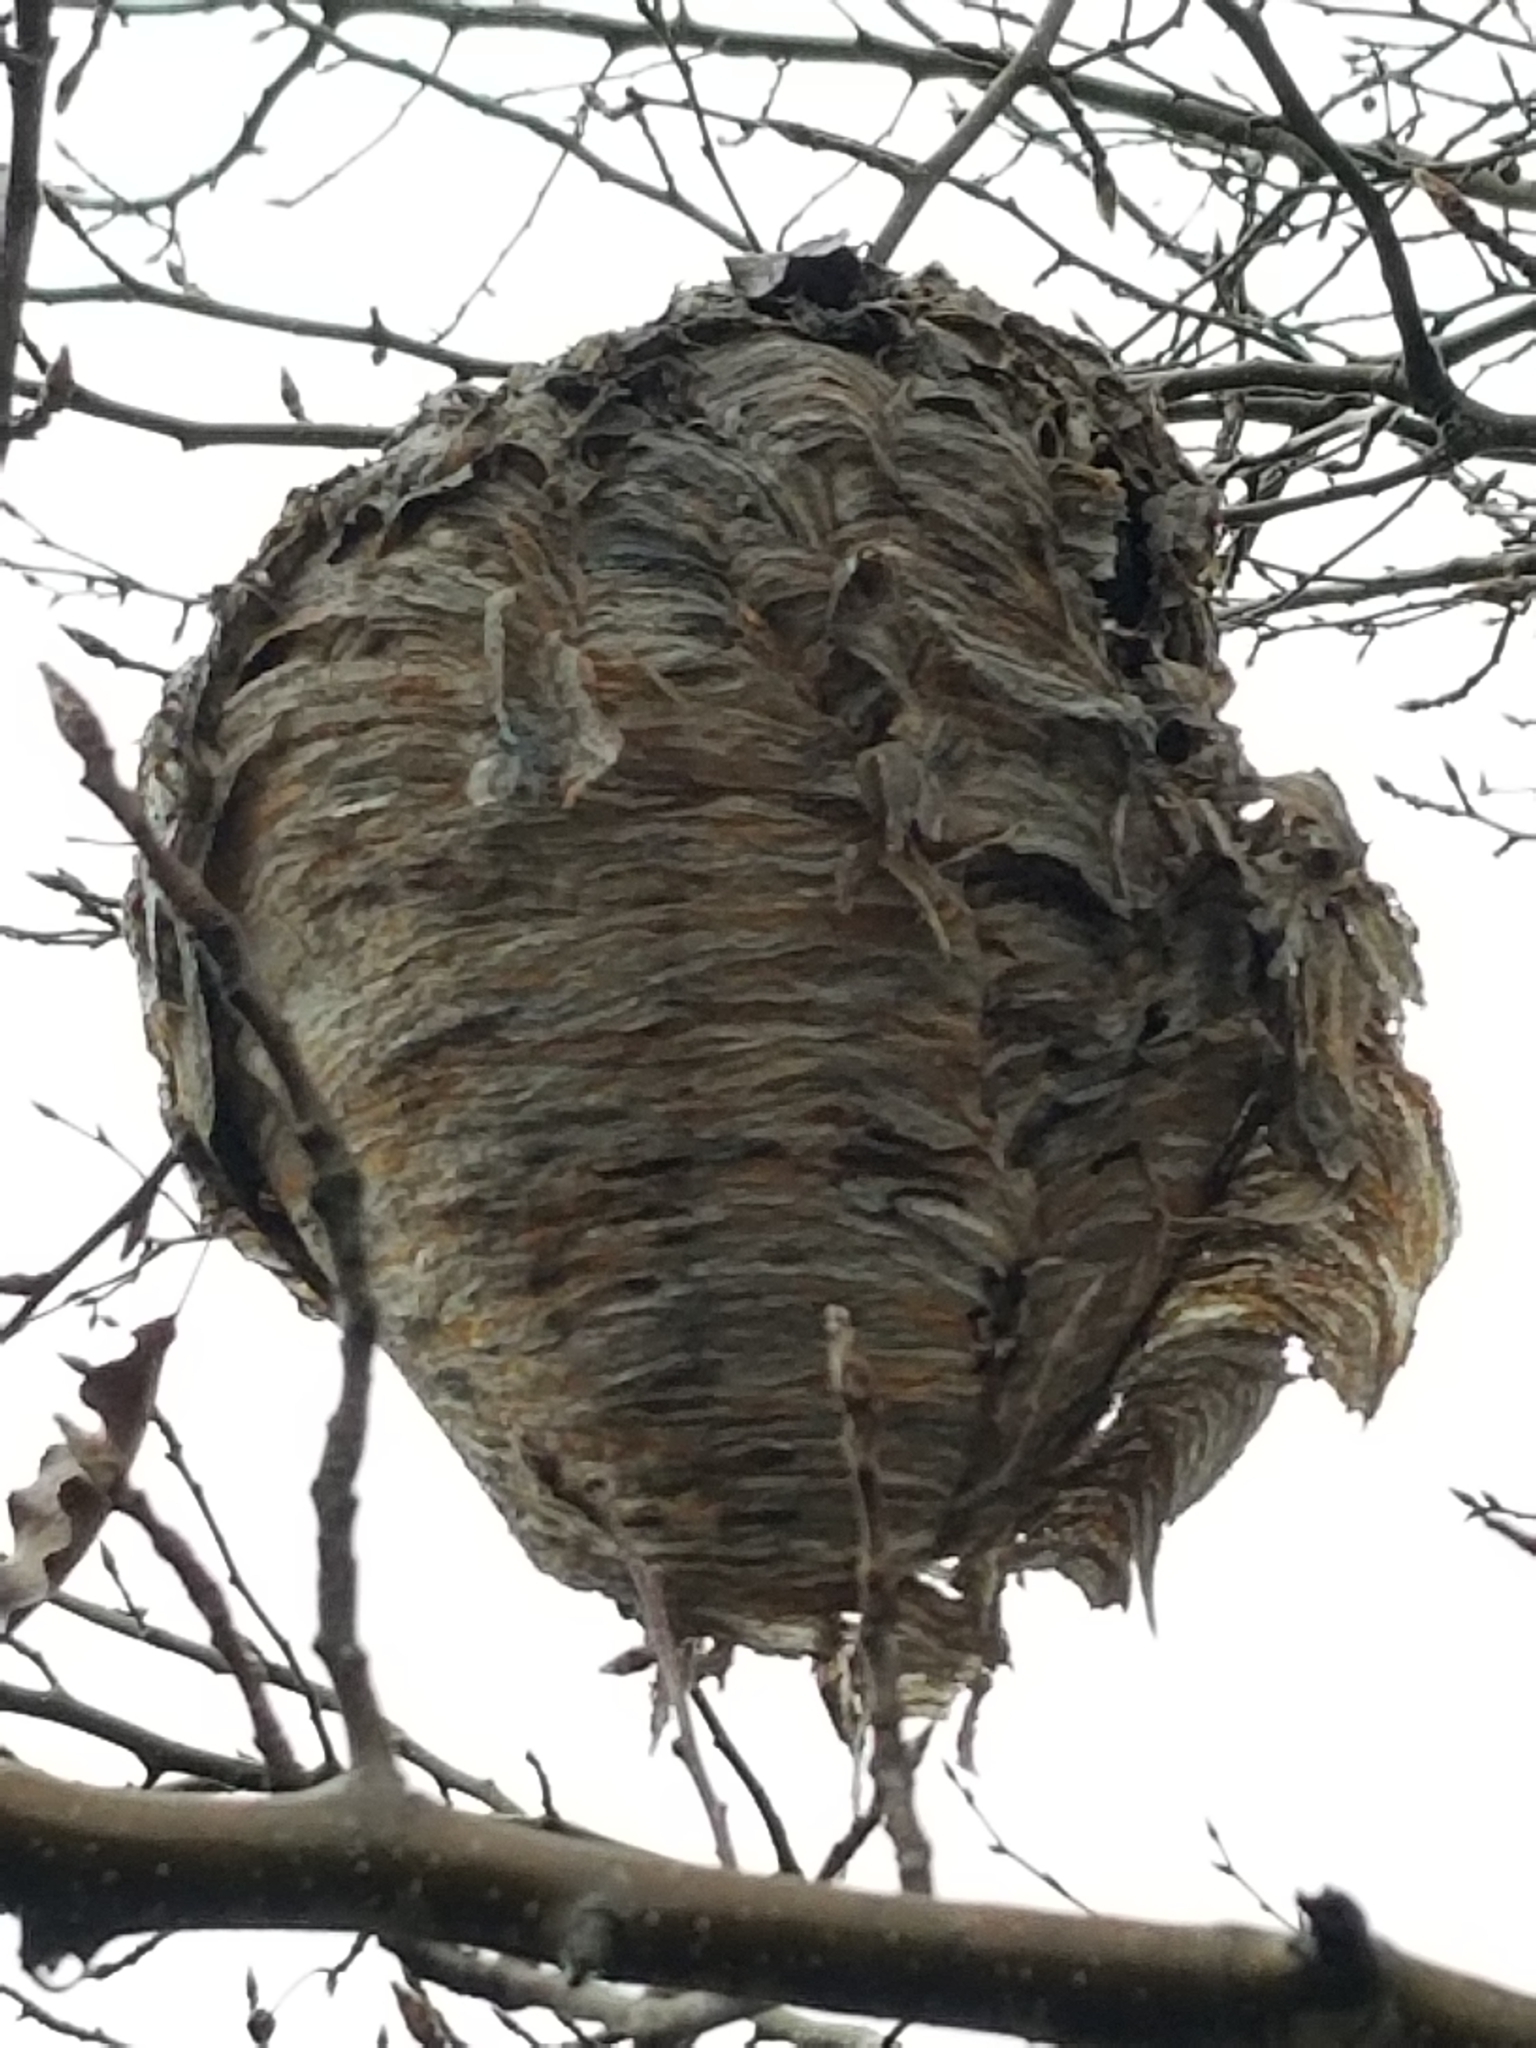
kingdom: Animalia
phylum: Arthropoda
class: Insecta
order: Hymenoptera
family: Vespidae
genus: Dolichovespula
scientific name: Dolichovespula maculata
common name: Bald-faced hornet
